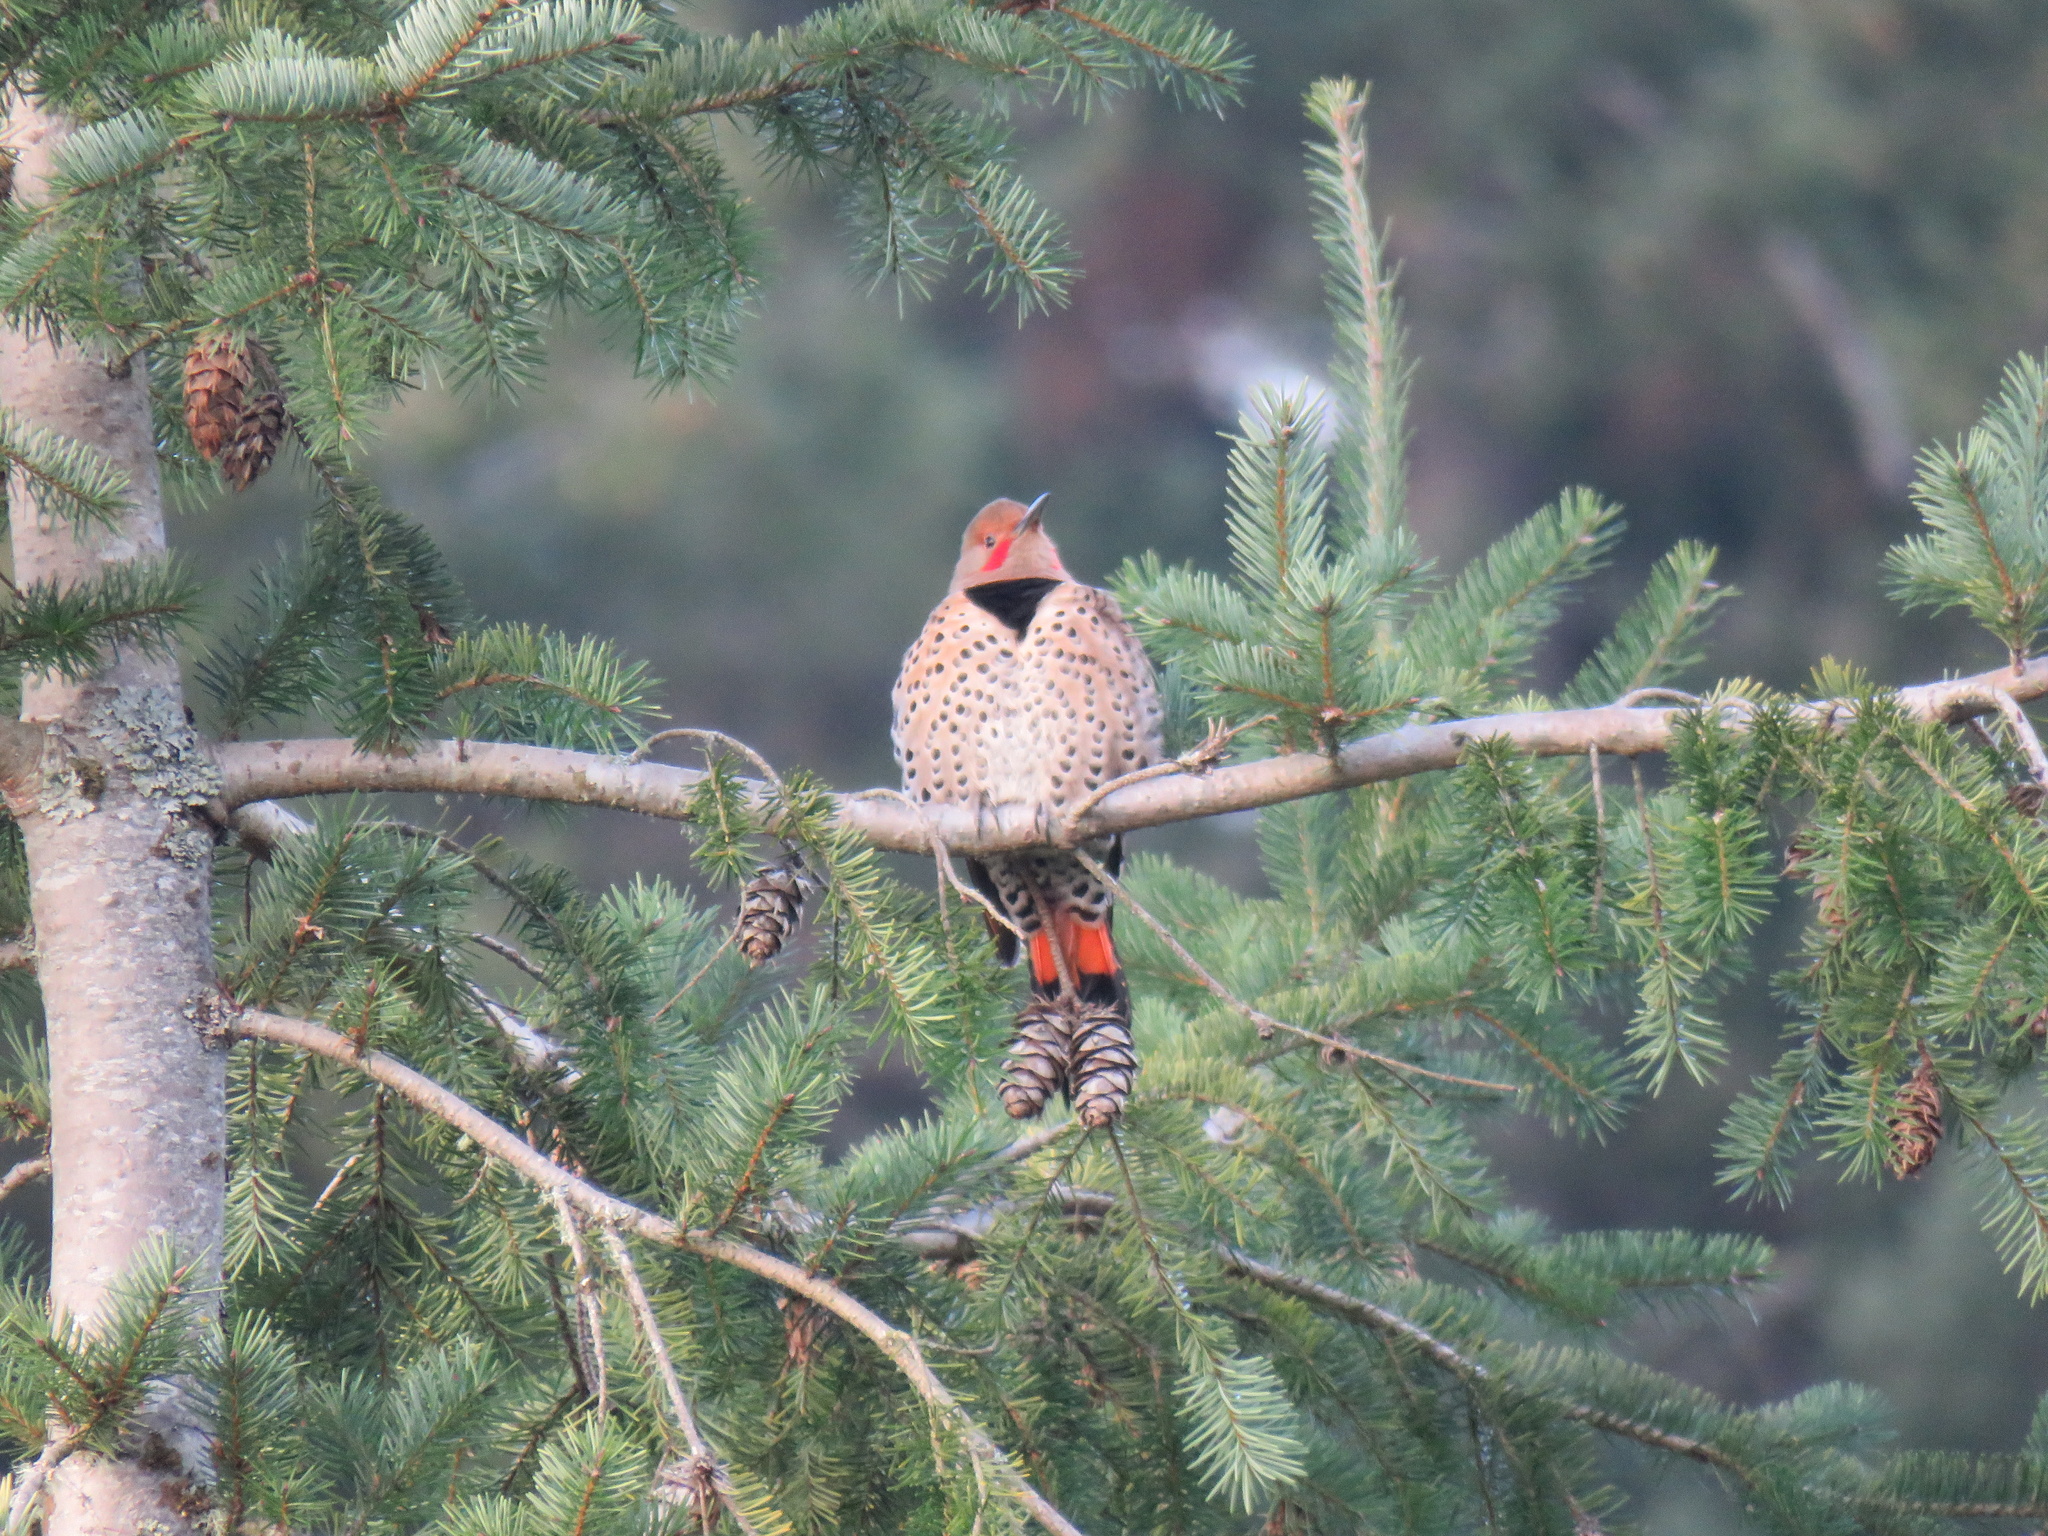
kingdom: Animalia
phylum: Chordata
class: Aves
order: Piciformes
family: Picidae
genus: Colaptes
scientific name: Colaptes auratus
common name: Northern flicker
